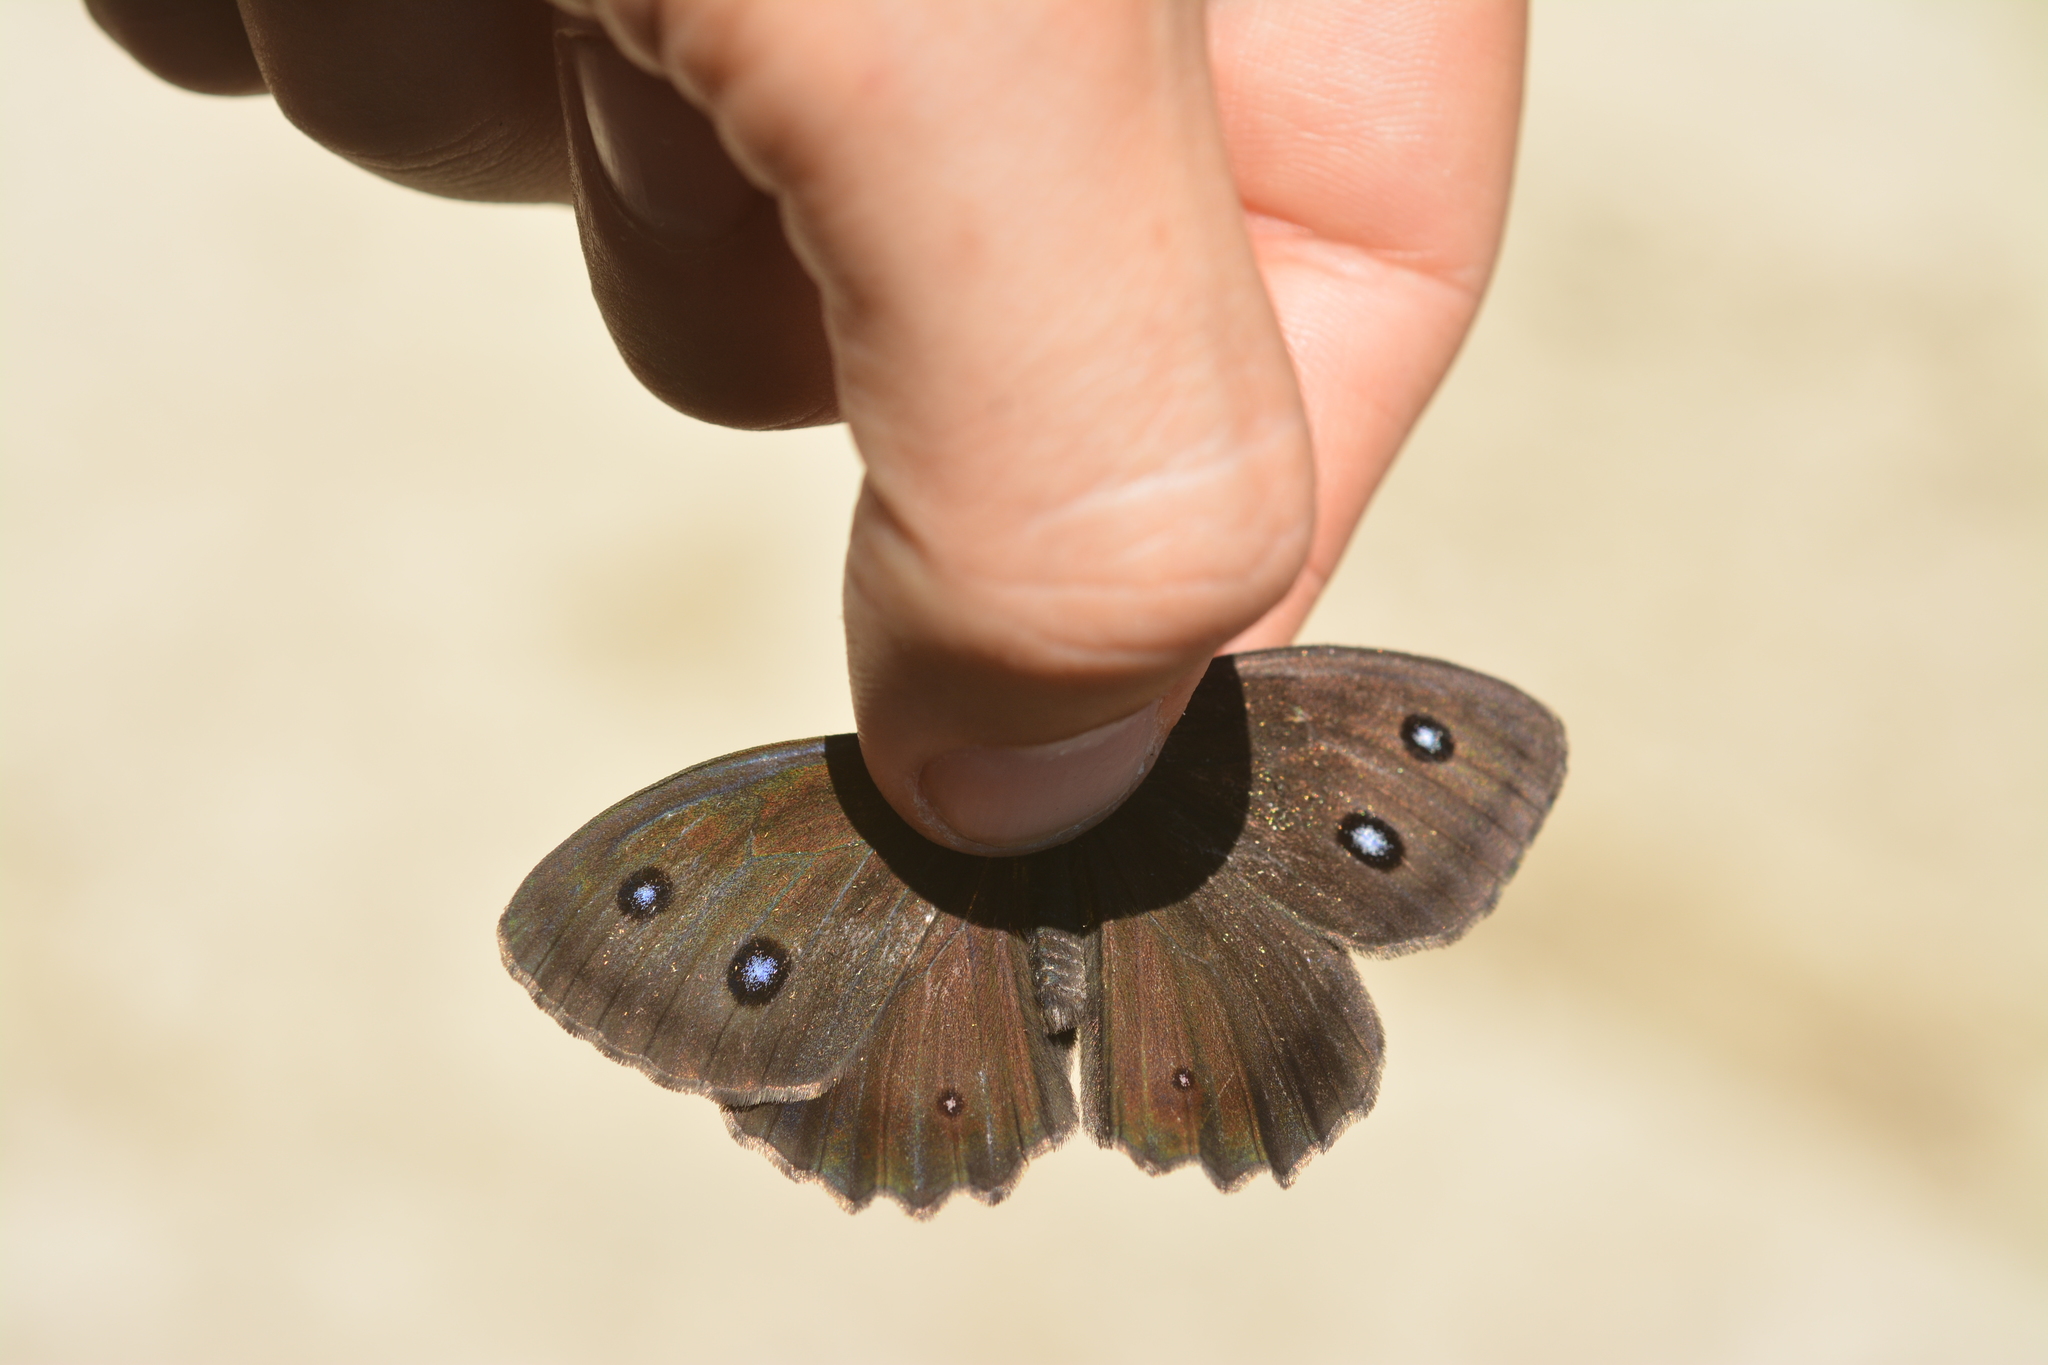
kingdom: Animalia
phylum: Arthropoda
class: Insecta
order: Lepidoptera
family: Nymphalidae
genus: Minois
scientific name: Minois dryas
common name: Dryad
